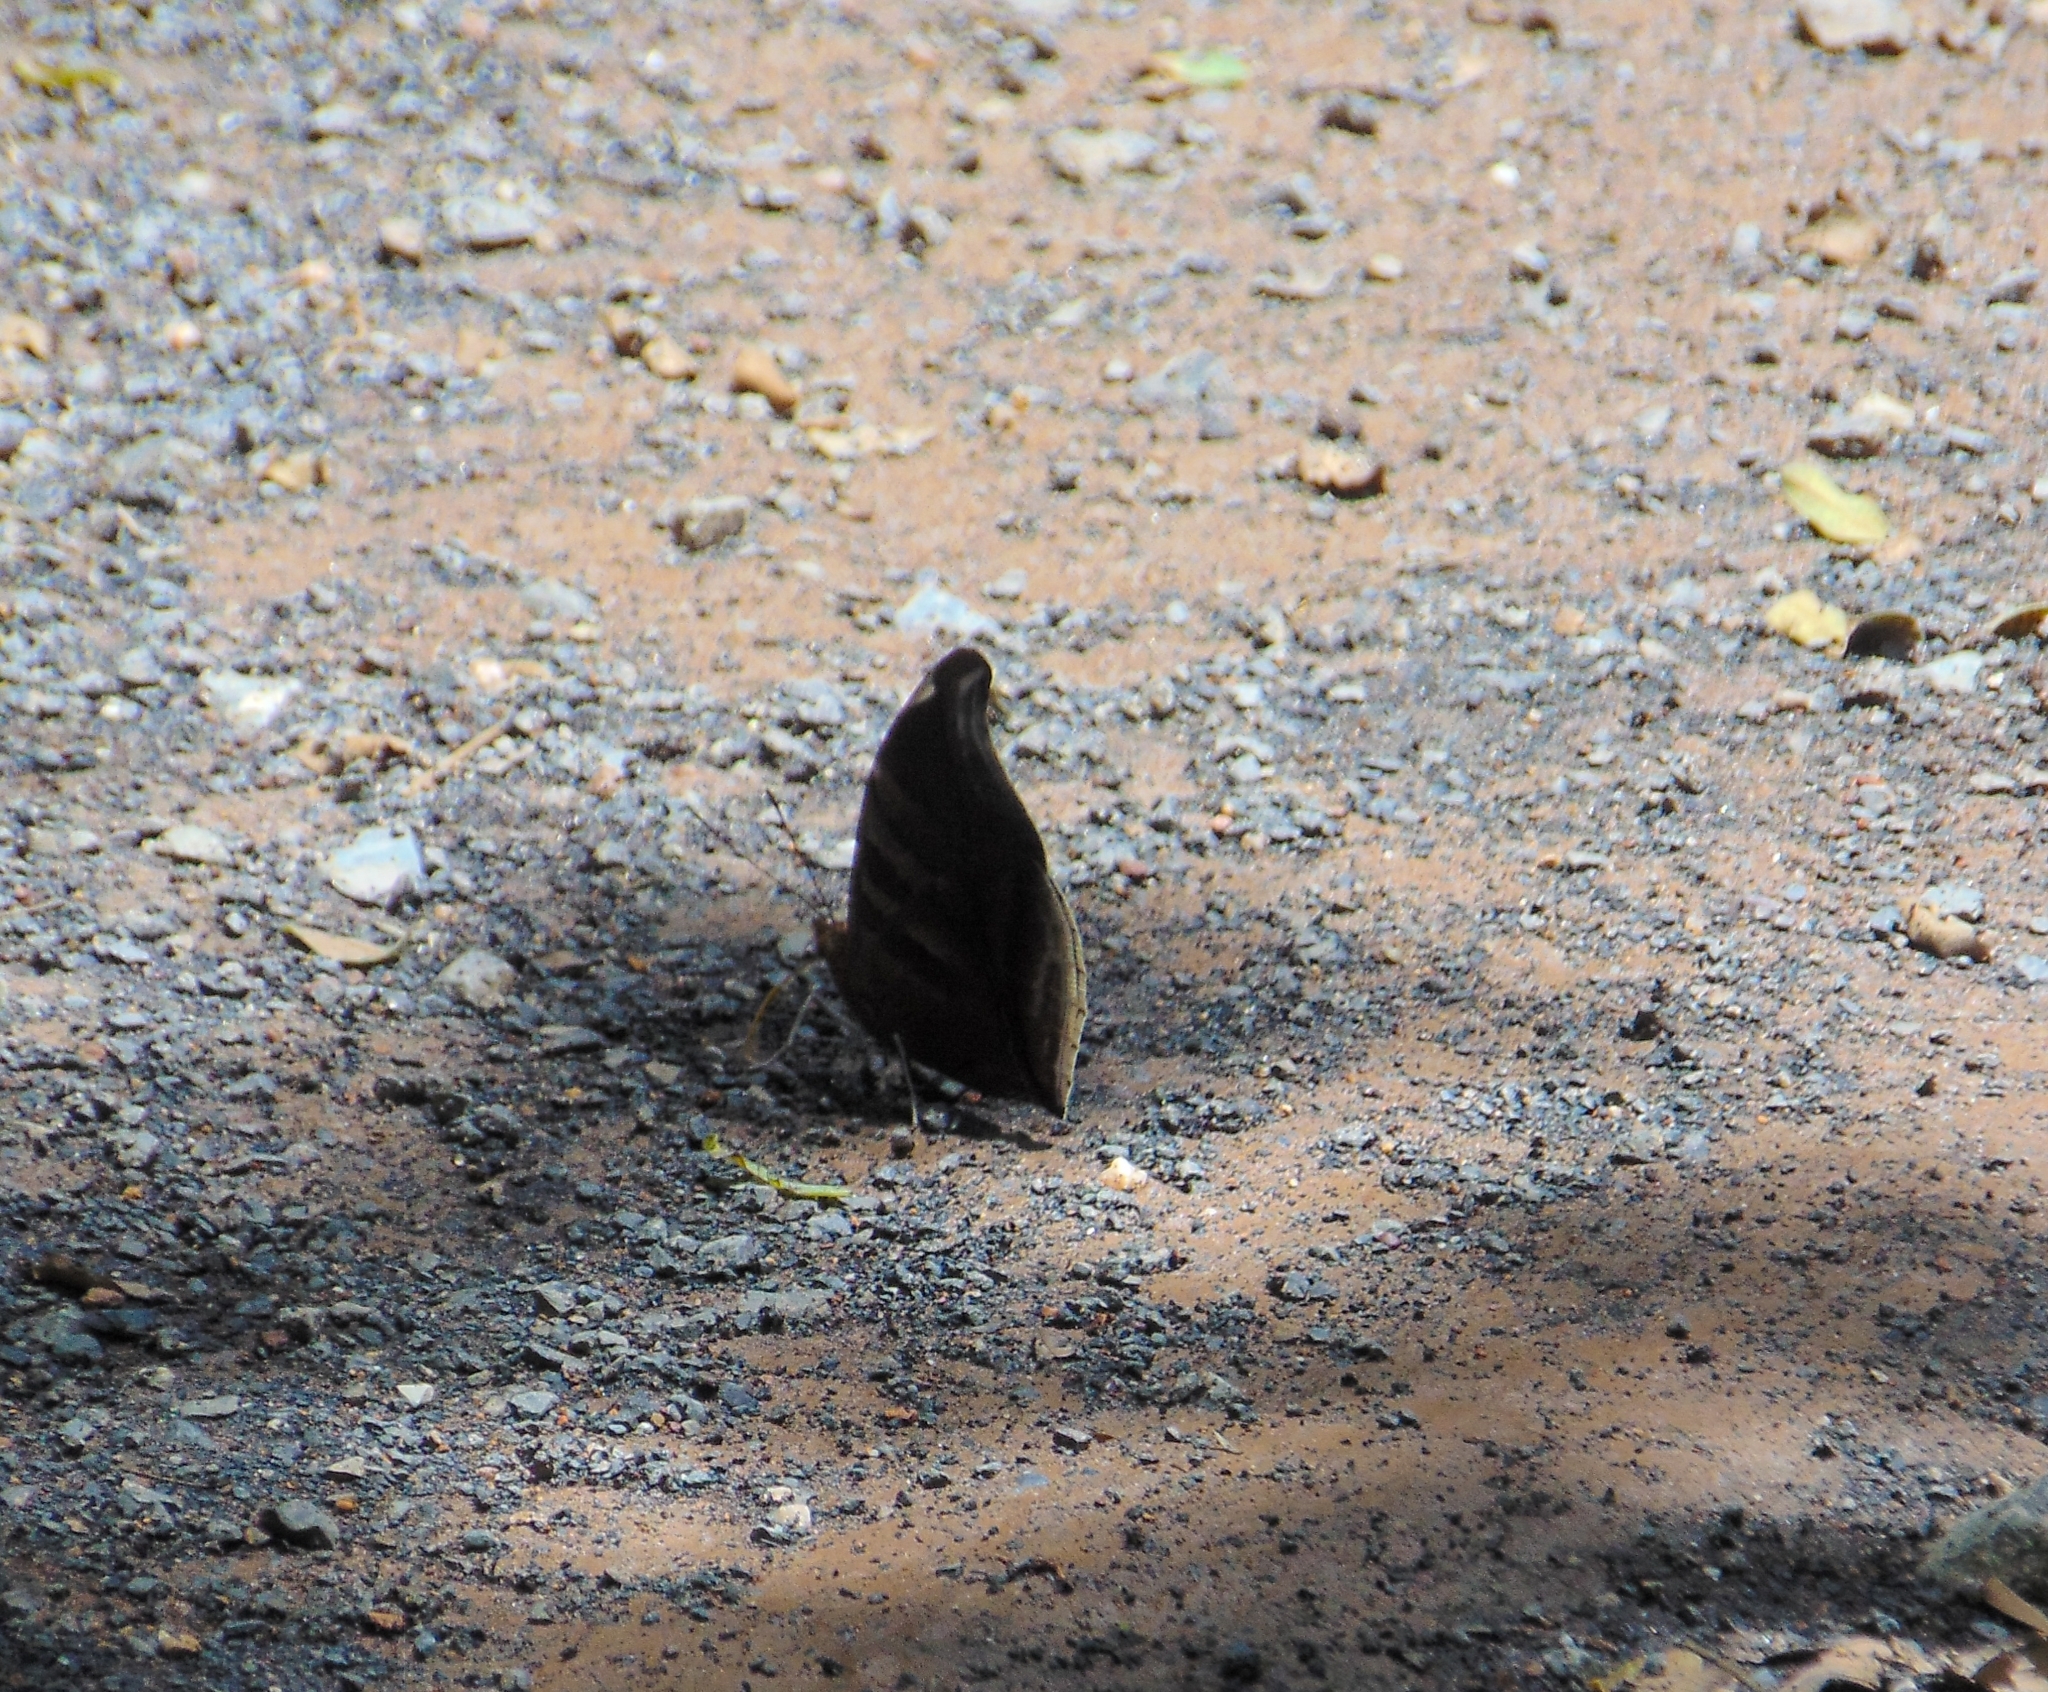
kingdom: Animalia
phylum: Arthropoda
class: Insecta
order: Lepidoptera
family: Nymphalidae
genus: Historis
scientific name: Historis odius
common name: Orion cecropian
